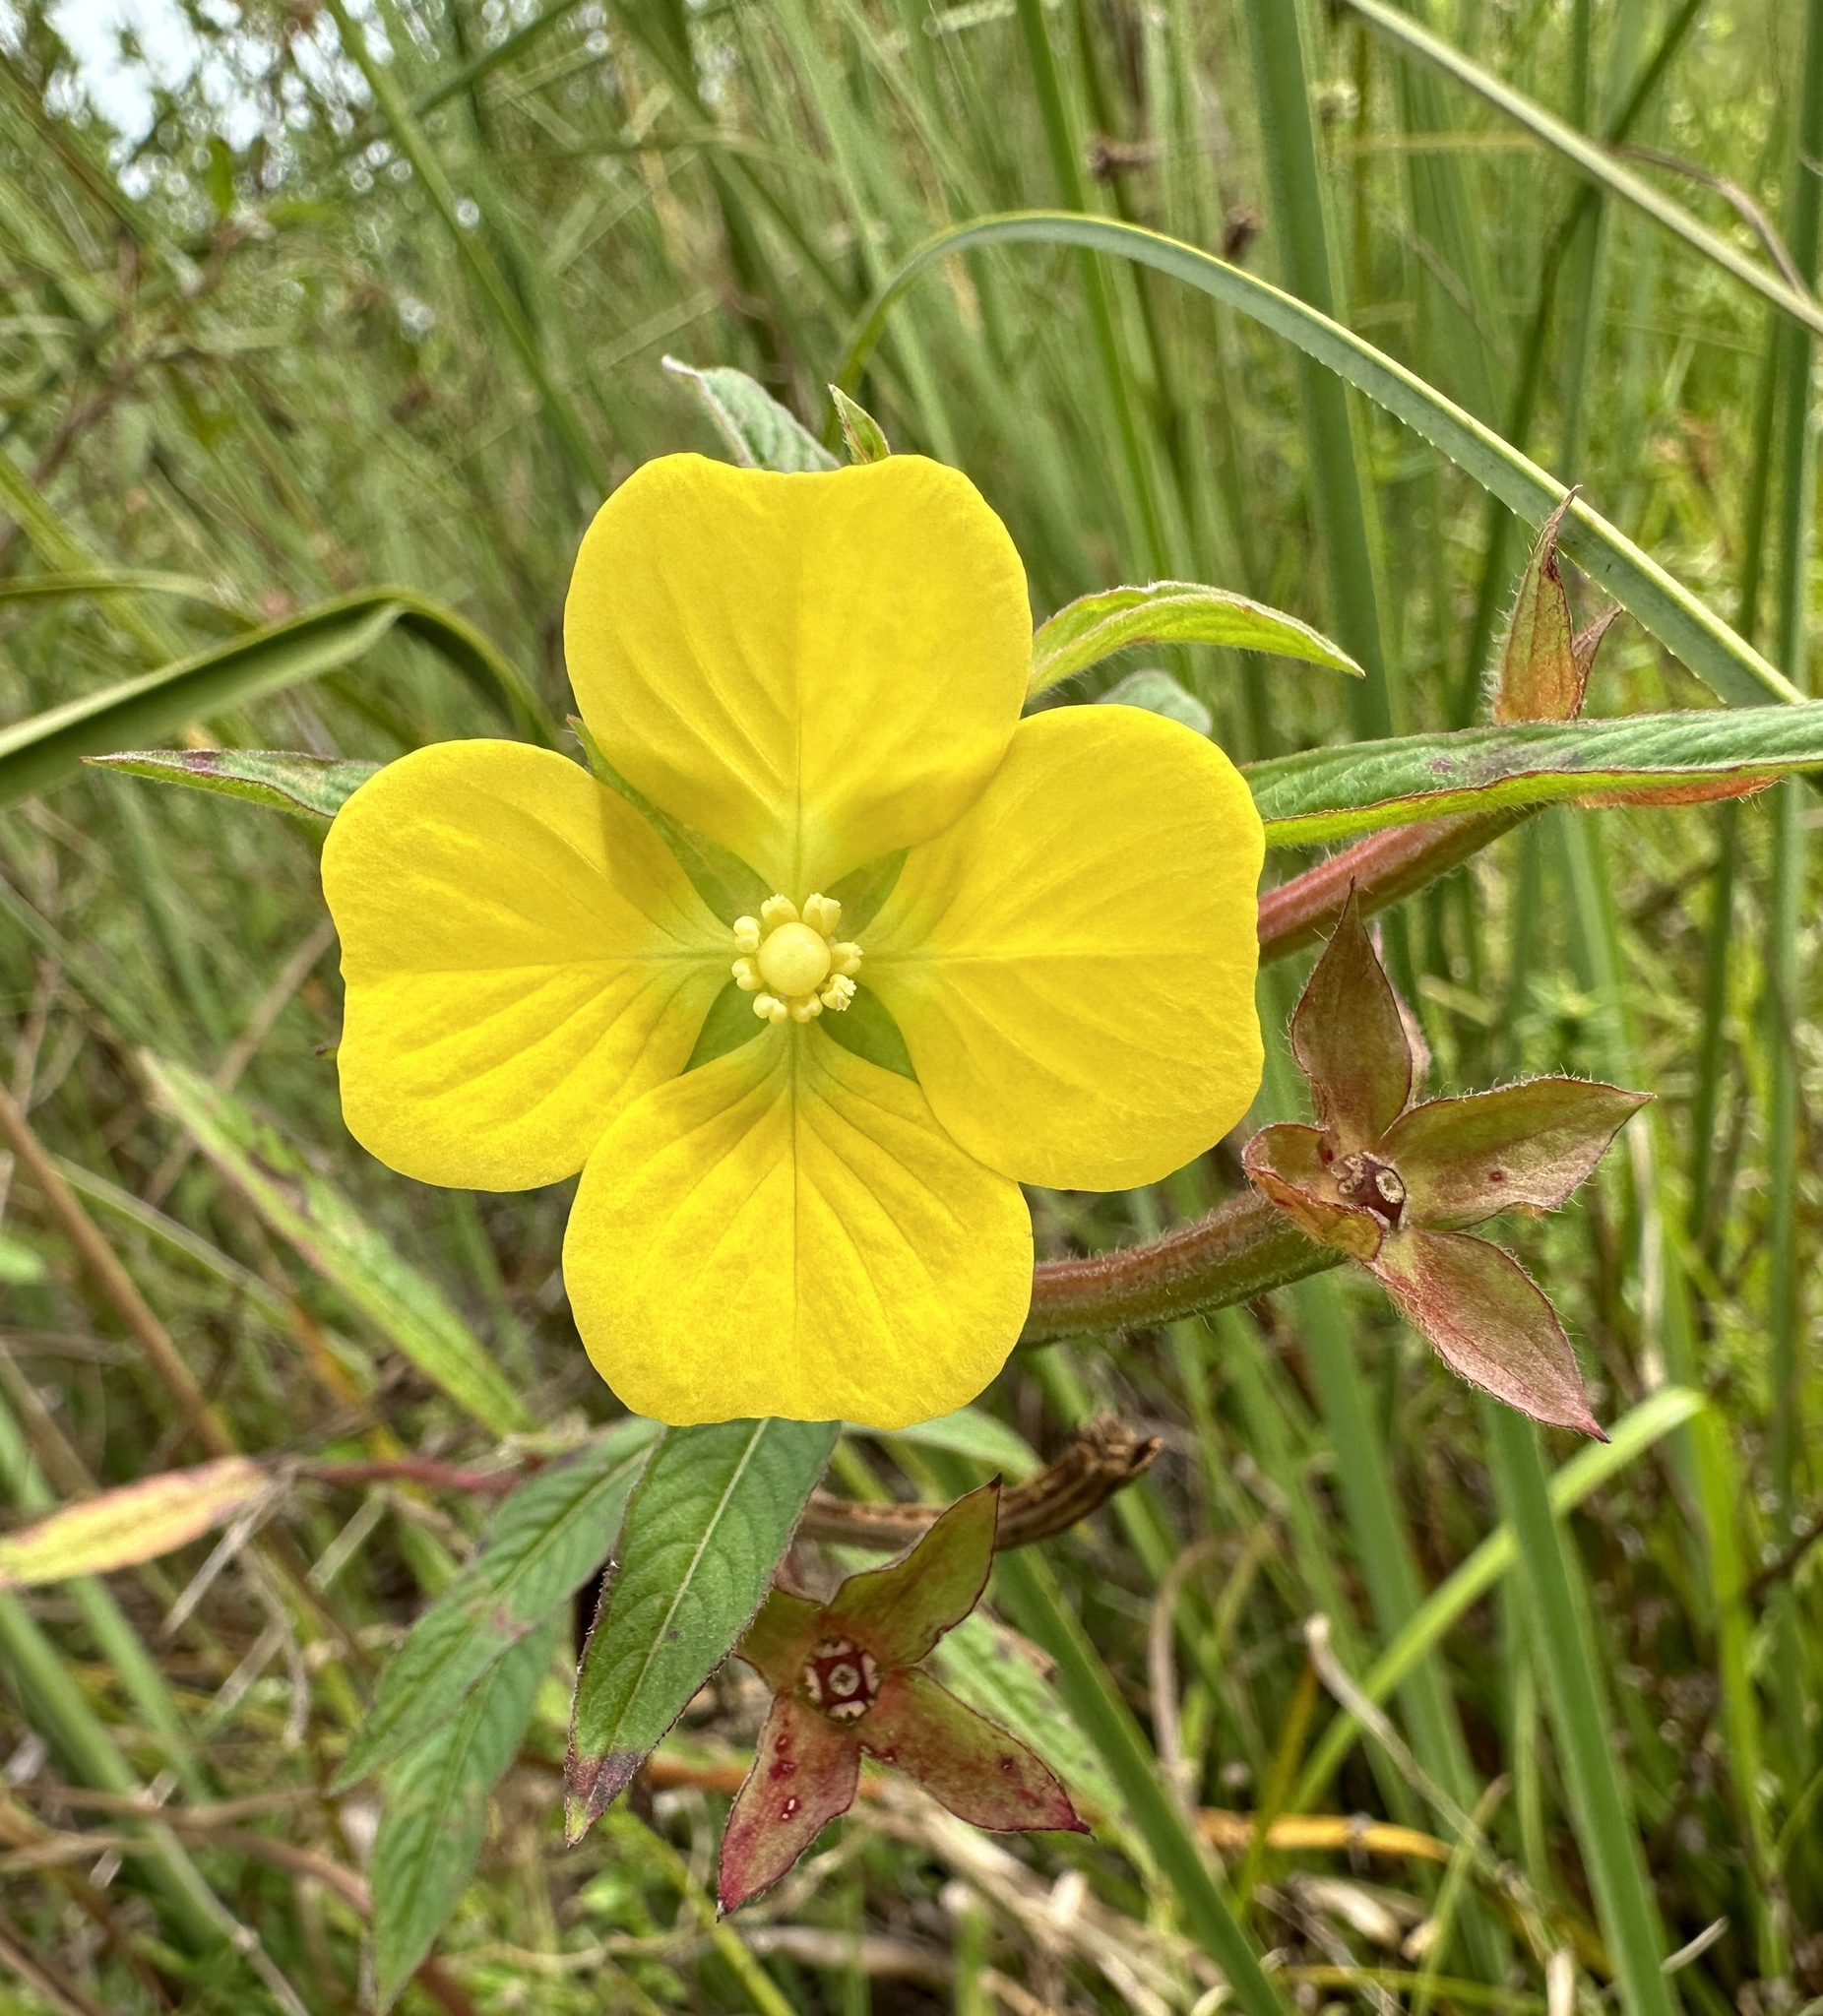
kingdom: Plantae
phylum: Tracheophyta
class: Magnoliopsida
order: Myrtales
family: Onagraceae
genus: Ludwigia
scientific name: Ludwigia octovalvis
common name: Water-primrose
